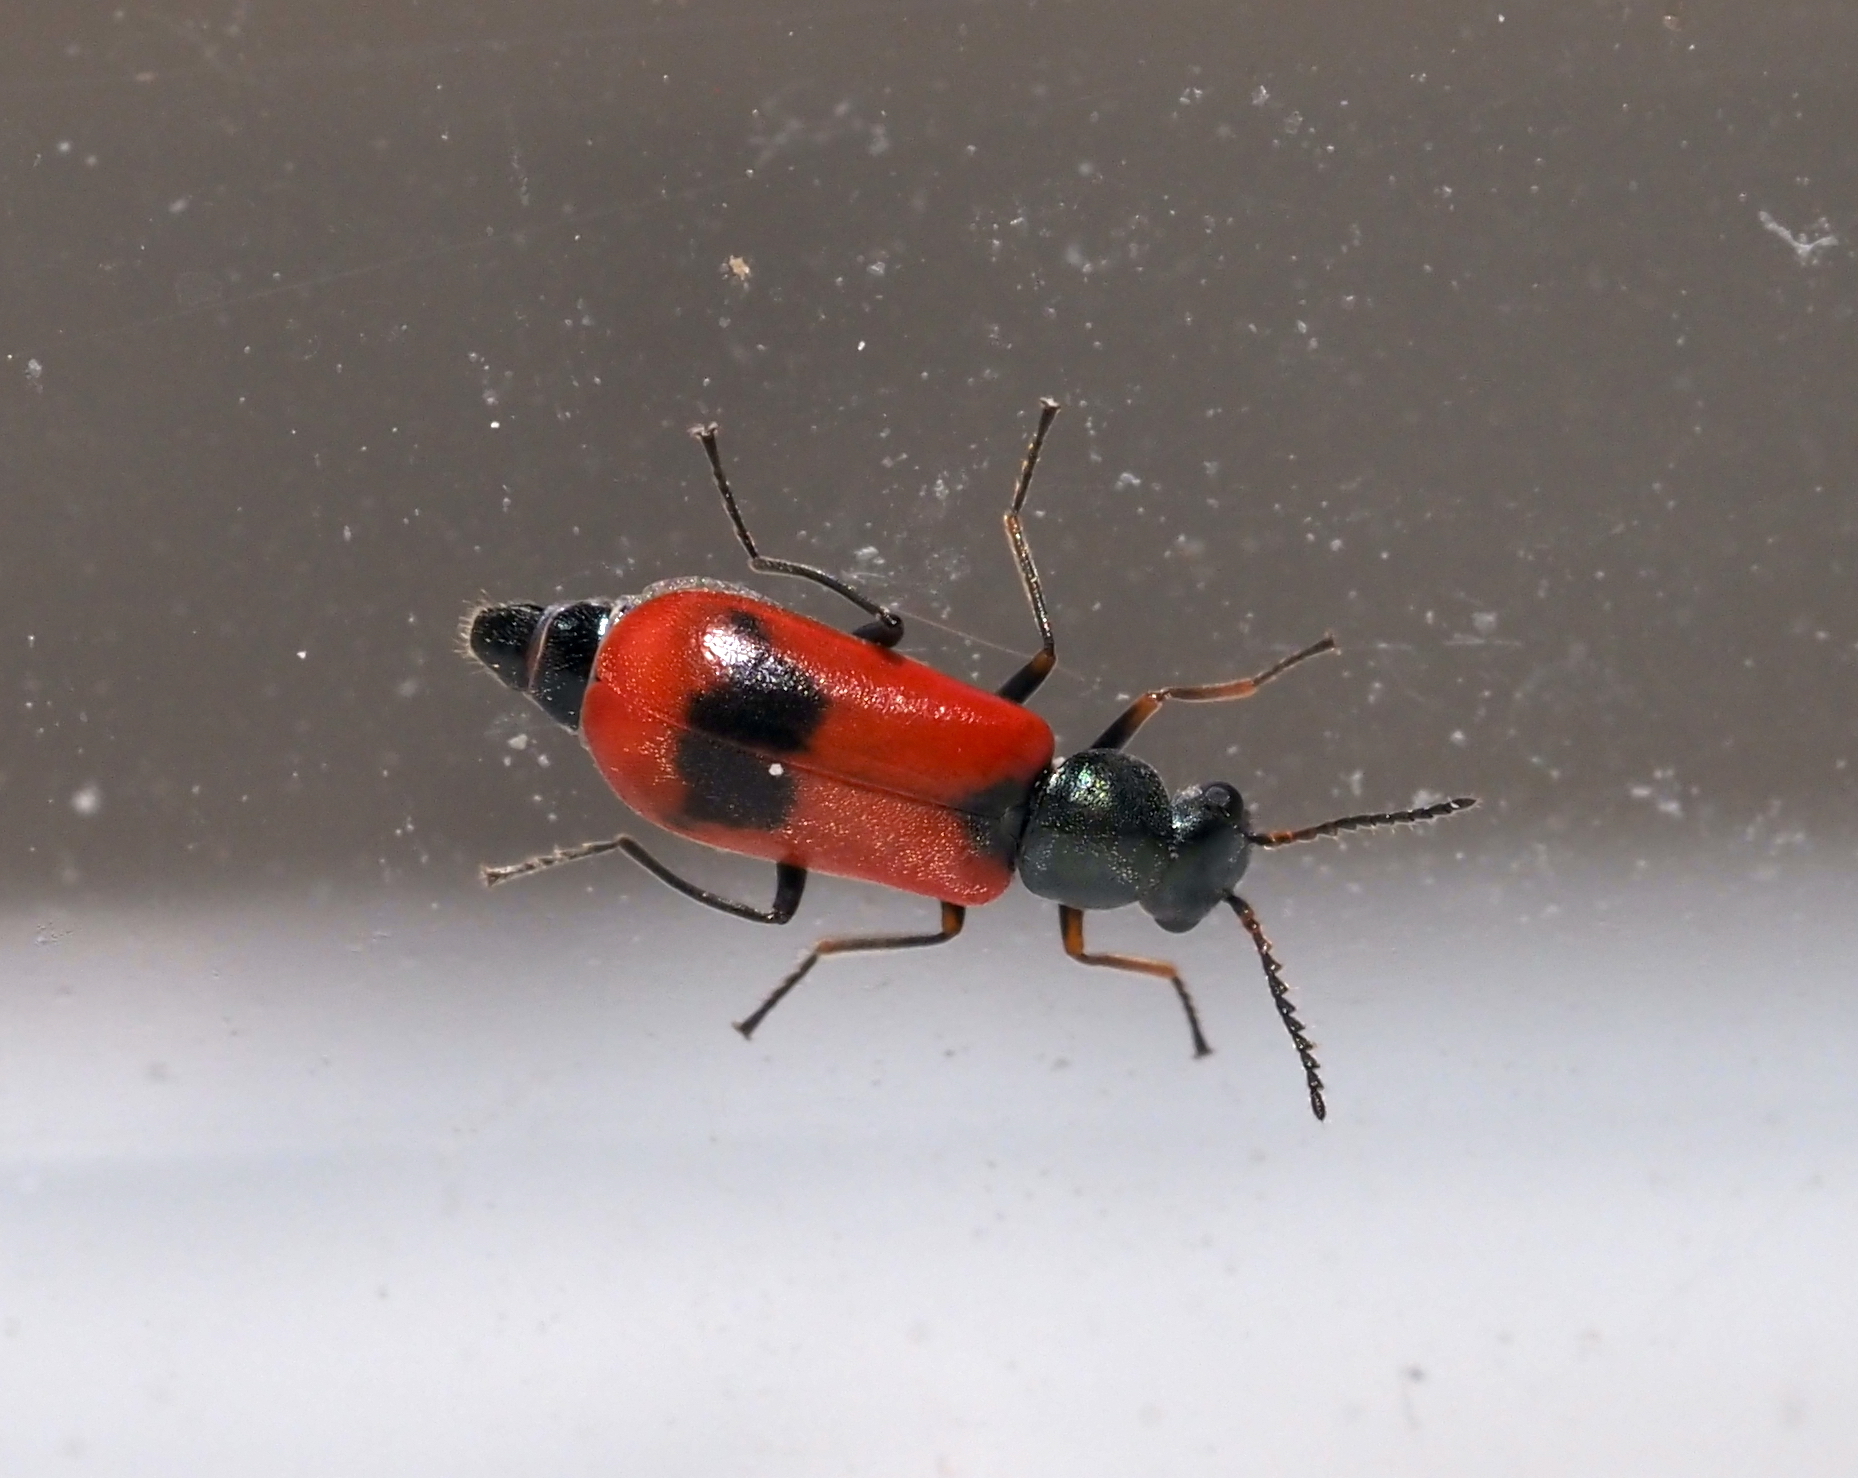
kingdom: Animalia
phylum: Arthropoda
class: Insecta
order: Coleoptera
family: Melyridae
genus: Anthocomus
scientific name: Anthocomus equestris
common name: Black-banded soft-winged flower beetle
